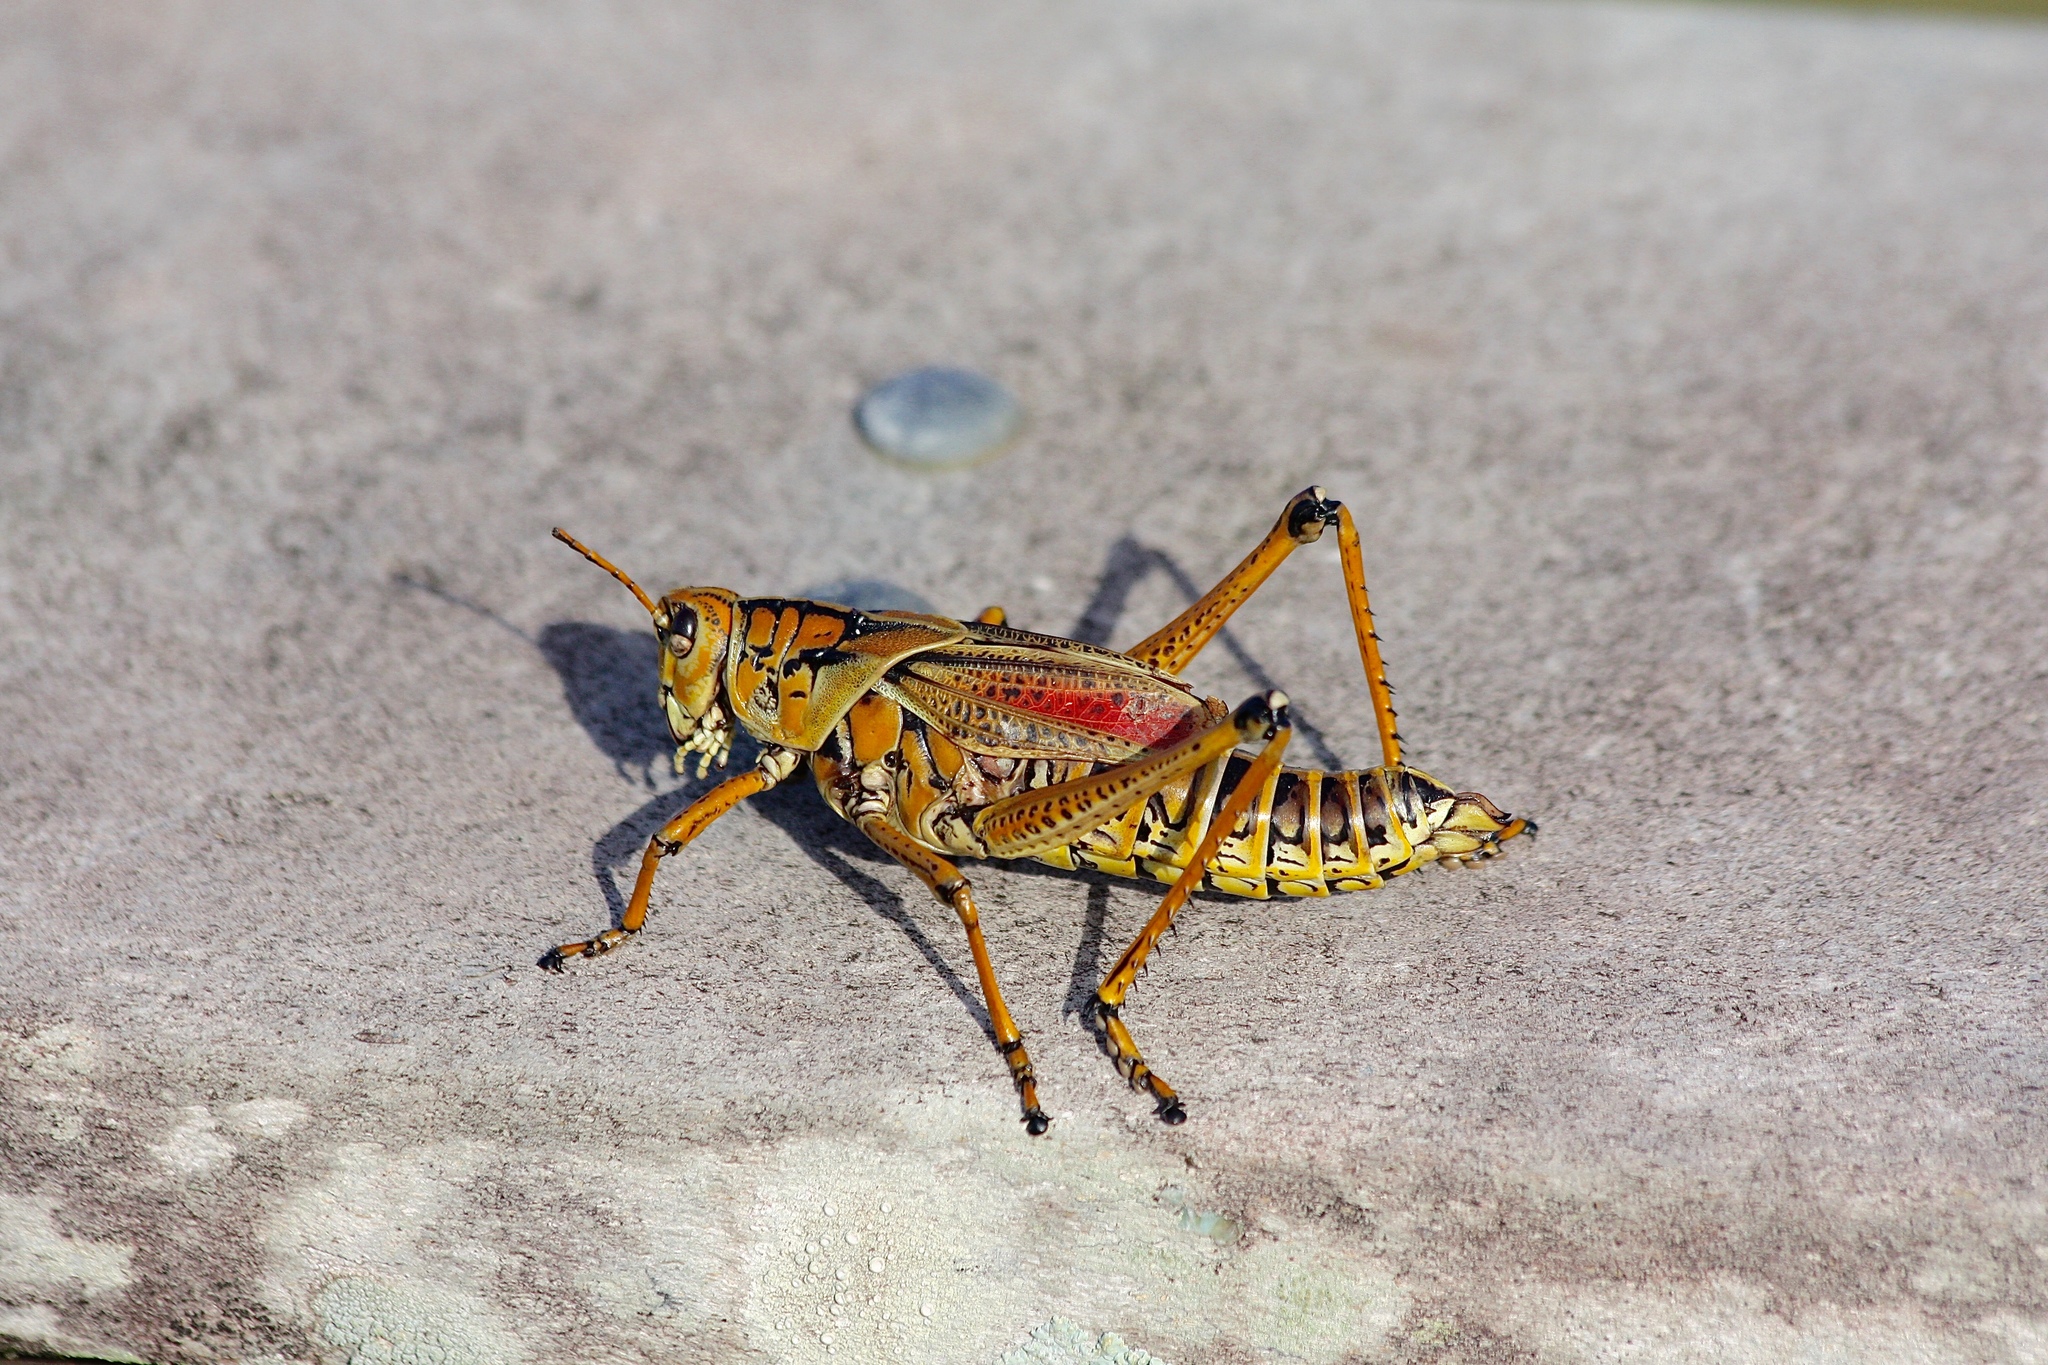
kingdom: Animalia
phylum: Arthropoda
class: Insecta
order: Orthoptera
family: Romaleidae
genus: Romalea
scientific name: Romalea microptera
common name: Eastern lubber grasshopper
